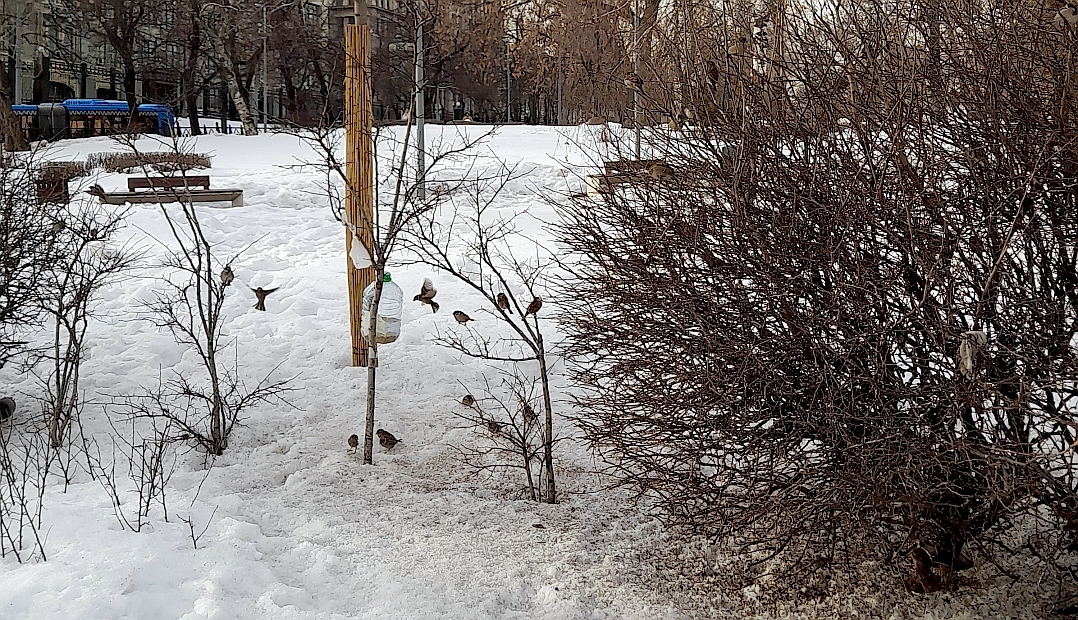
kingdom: Animalia
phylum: Chordata
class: Aves
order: Passeriformes
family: Passeridae
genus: Passer
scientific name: Passer domesticus
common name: House sparrow
